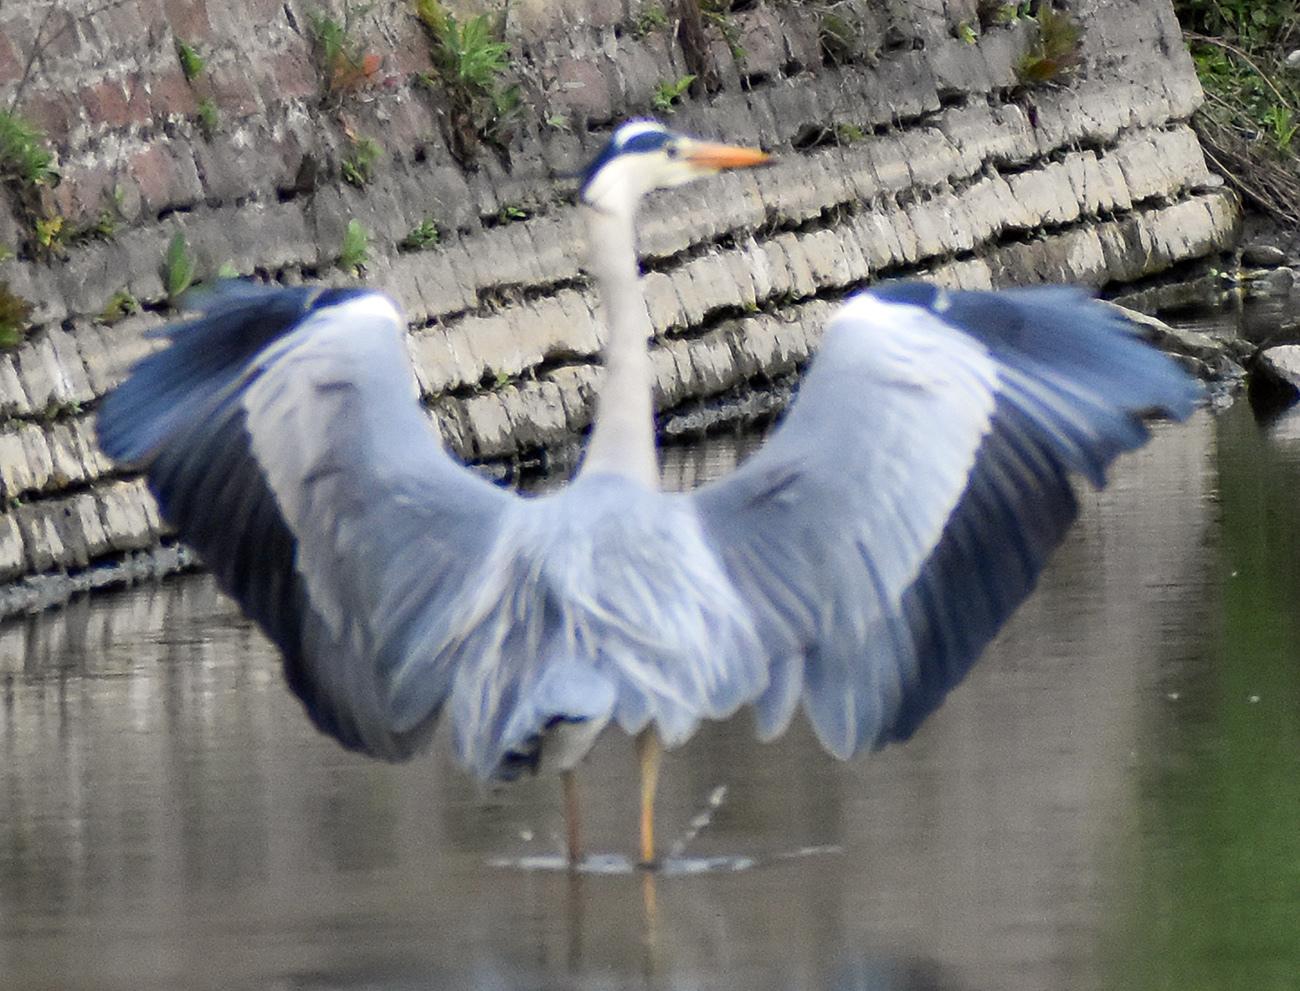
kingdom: Animalia
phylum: Chordata
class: Aves
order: Pelecaniformes
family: Ardeidae
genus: Ardea
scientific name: Ardea cinerea
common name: Grey heron
